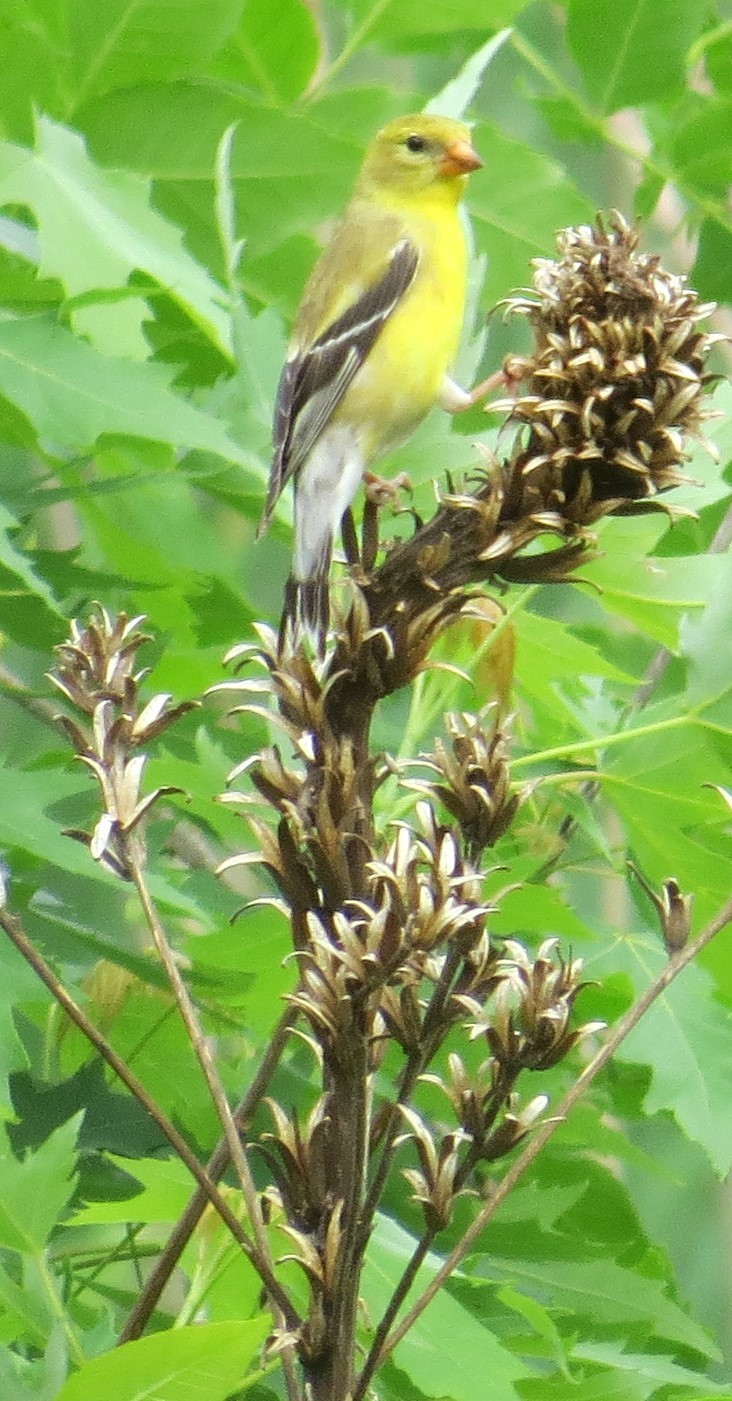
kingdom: Animalia
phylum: Chordata
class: Aves
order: Passeriformes
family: Fringillidae
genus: Spinus
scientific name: Spinus tristis
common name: American goldfinch
